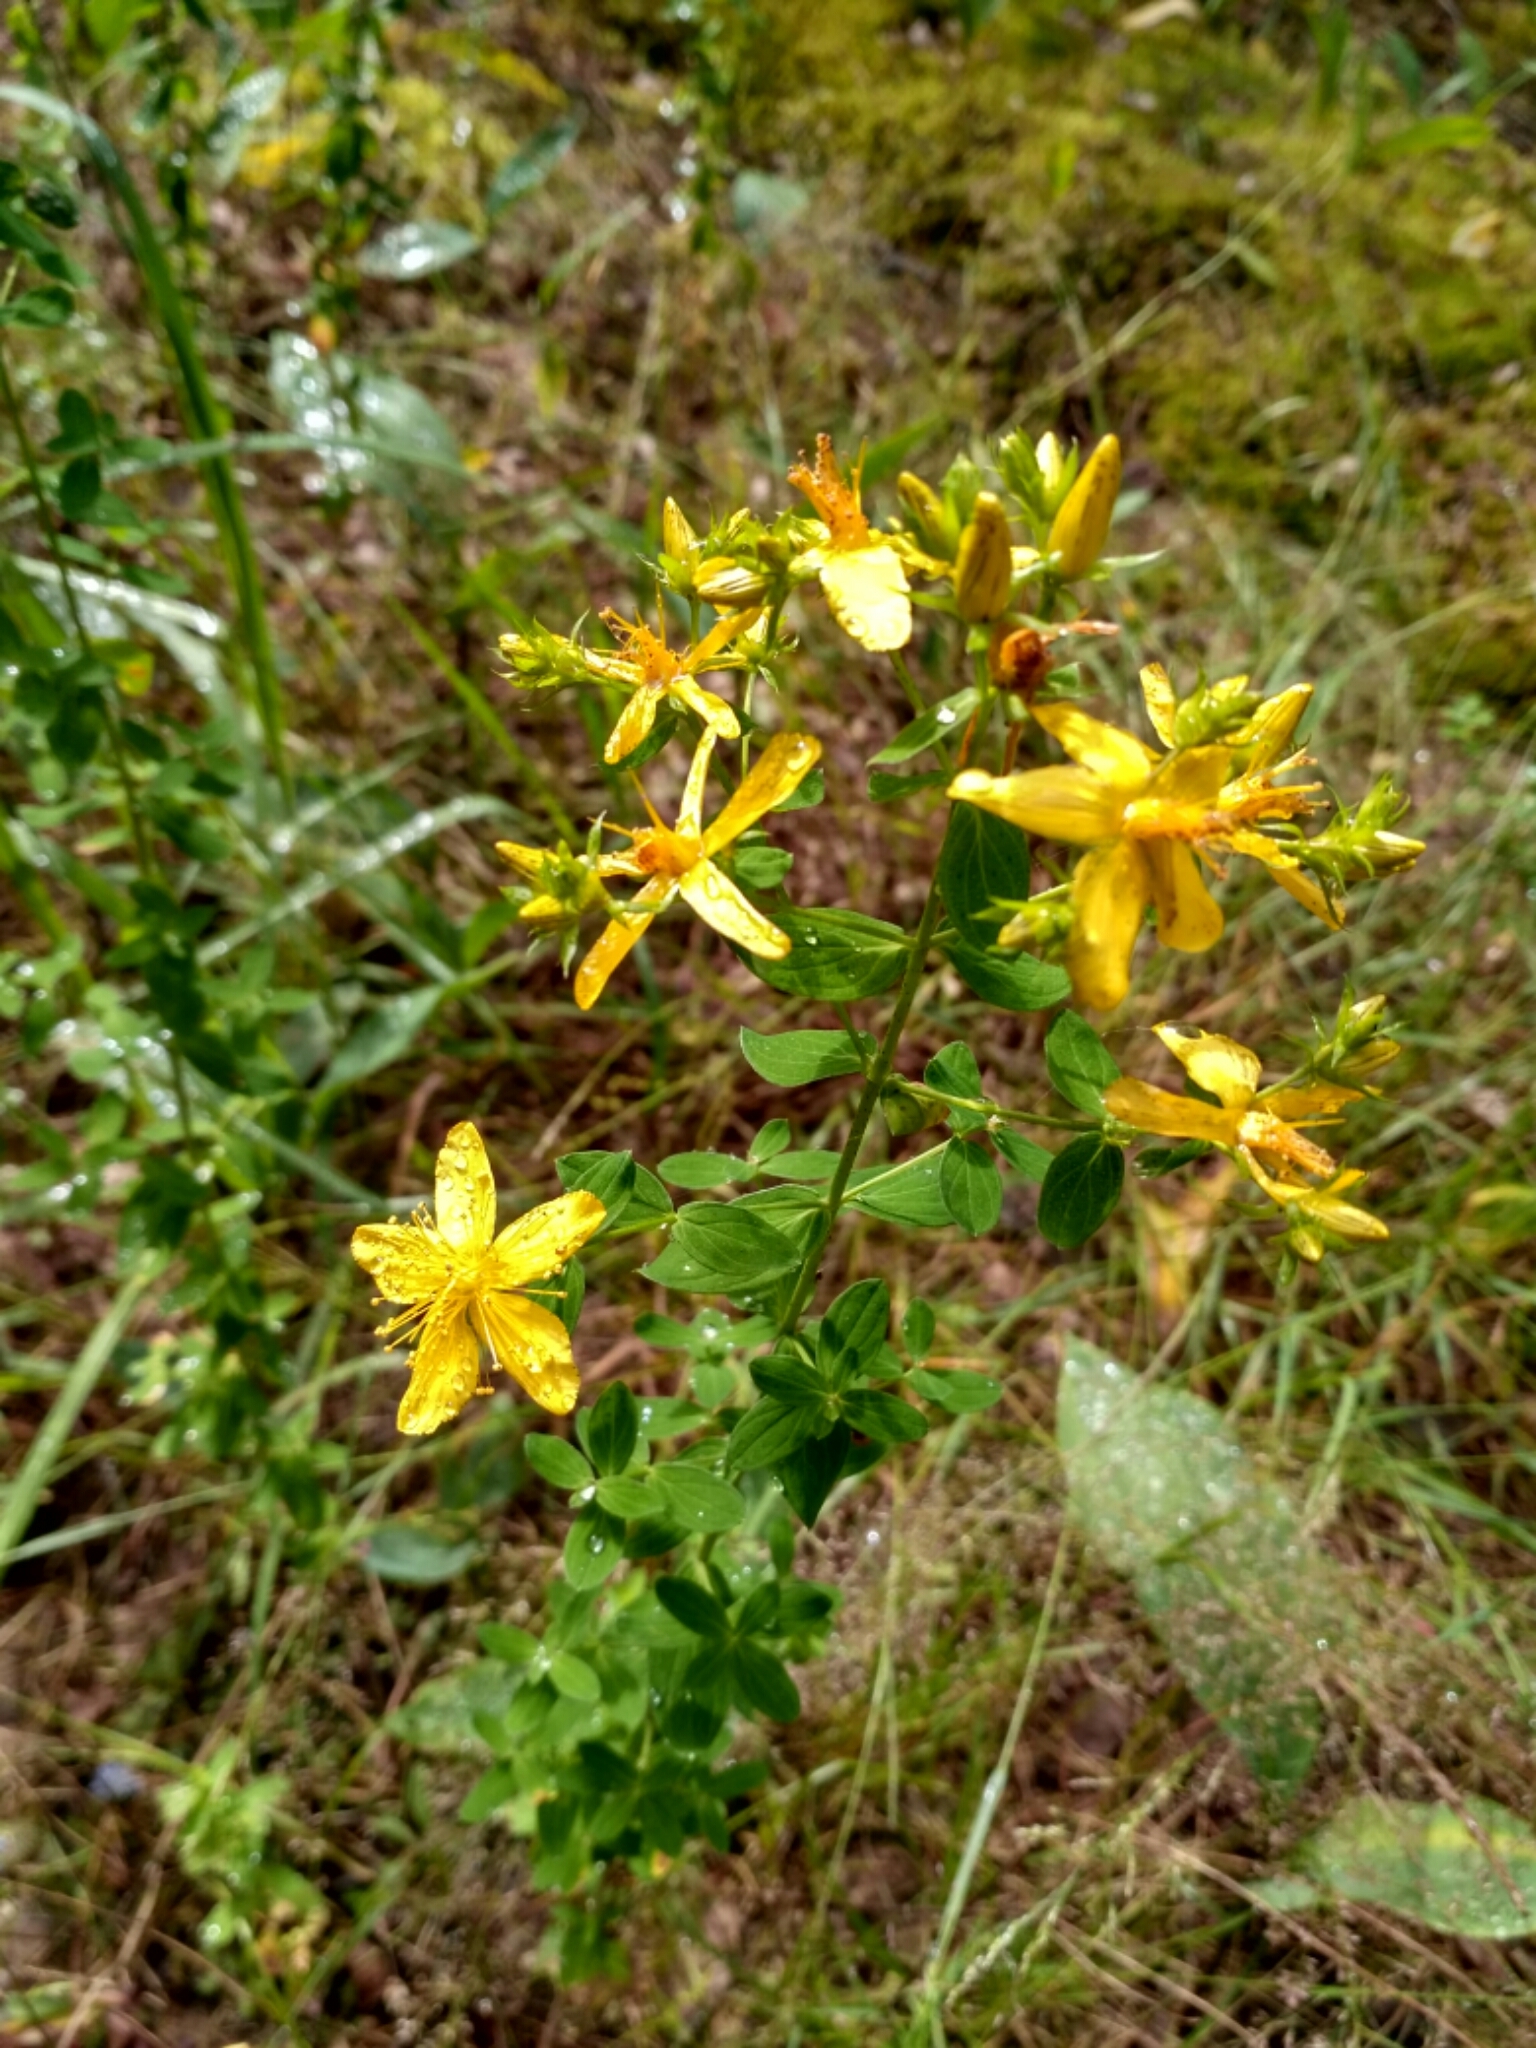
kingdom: Plantae
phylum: Tracheophyta
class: Magnoliopsida
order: Malpighiales
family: Hypericaceae
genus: Hypericum
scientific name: Hypericum perforatum
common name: Common st. johnswort
